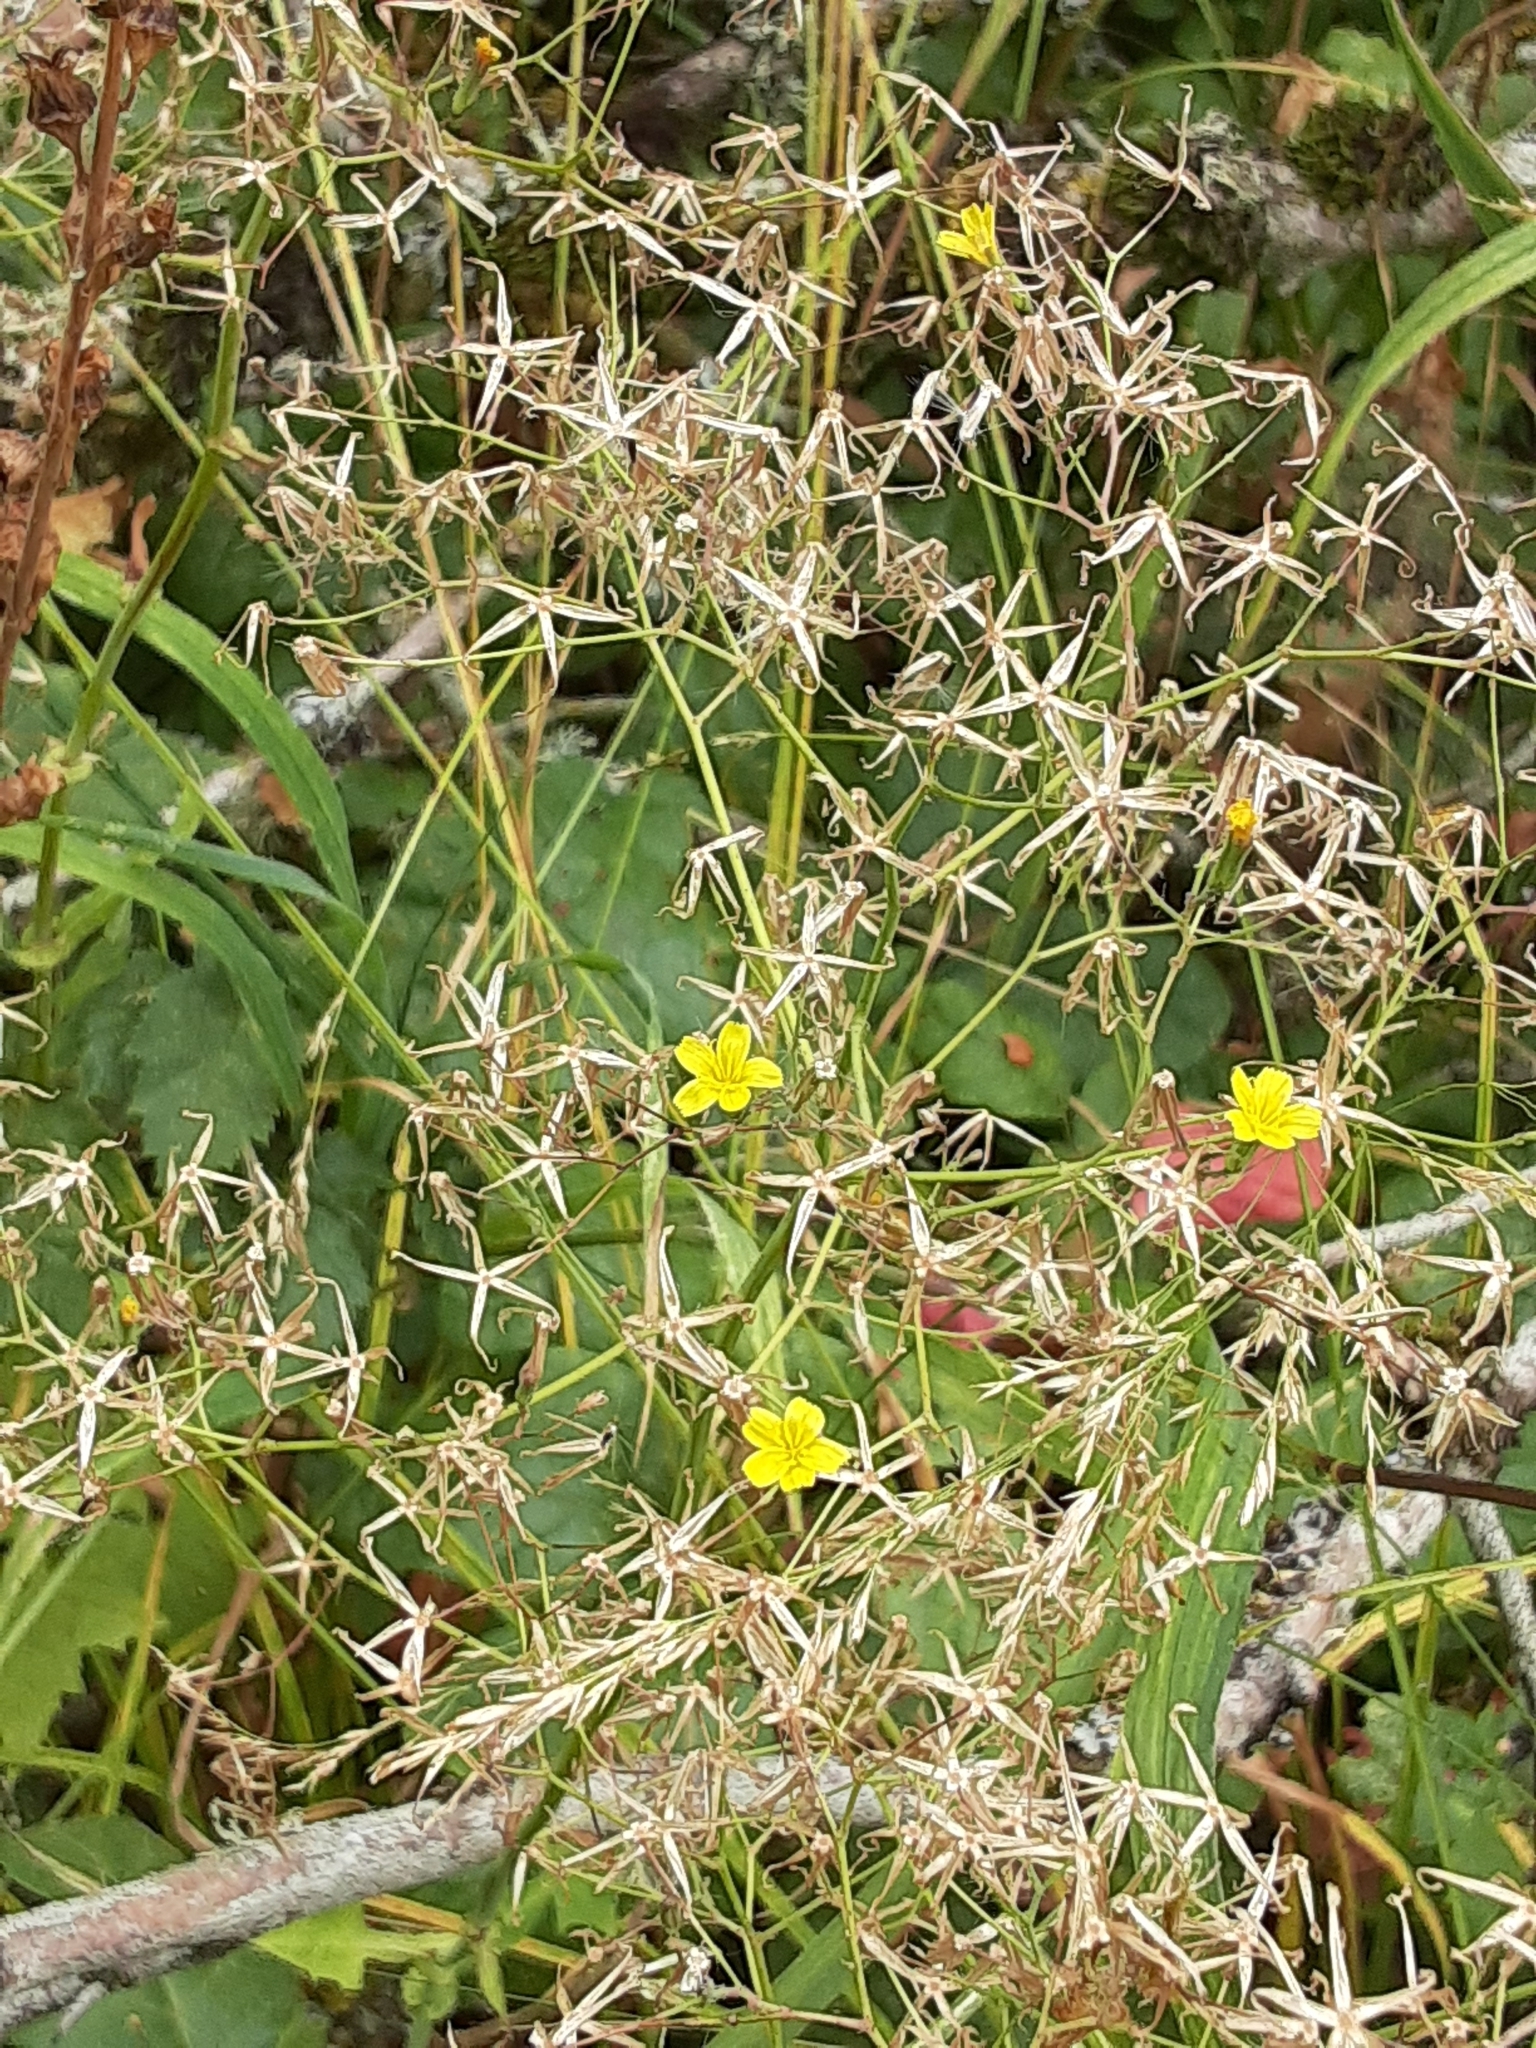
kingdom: Plantae
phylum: Tracheophyta
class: Magnoliopsida
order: Asterales
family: Asteraceae
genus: Mycelis
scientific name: Mycelis muralis
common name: Wall lettuce
